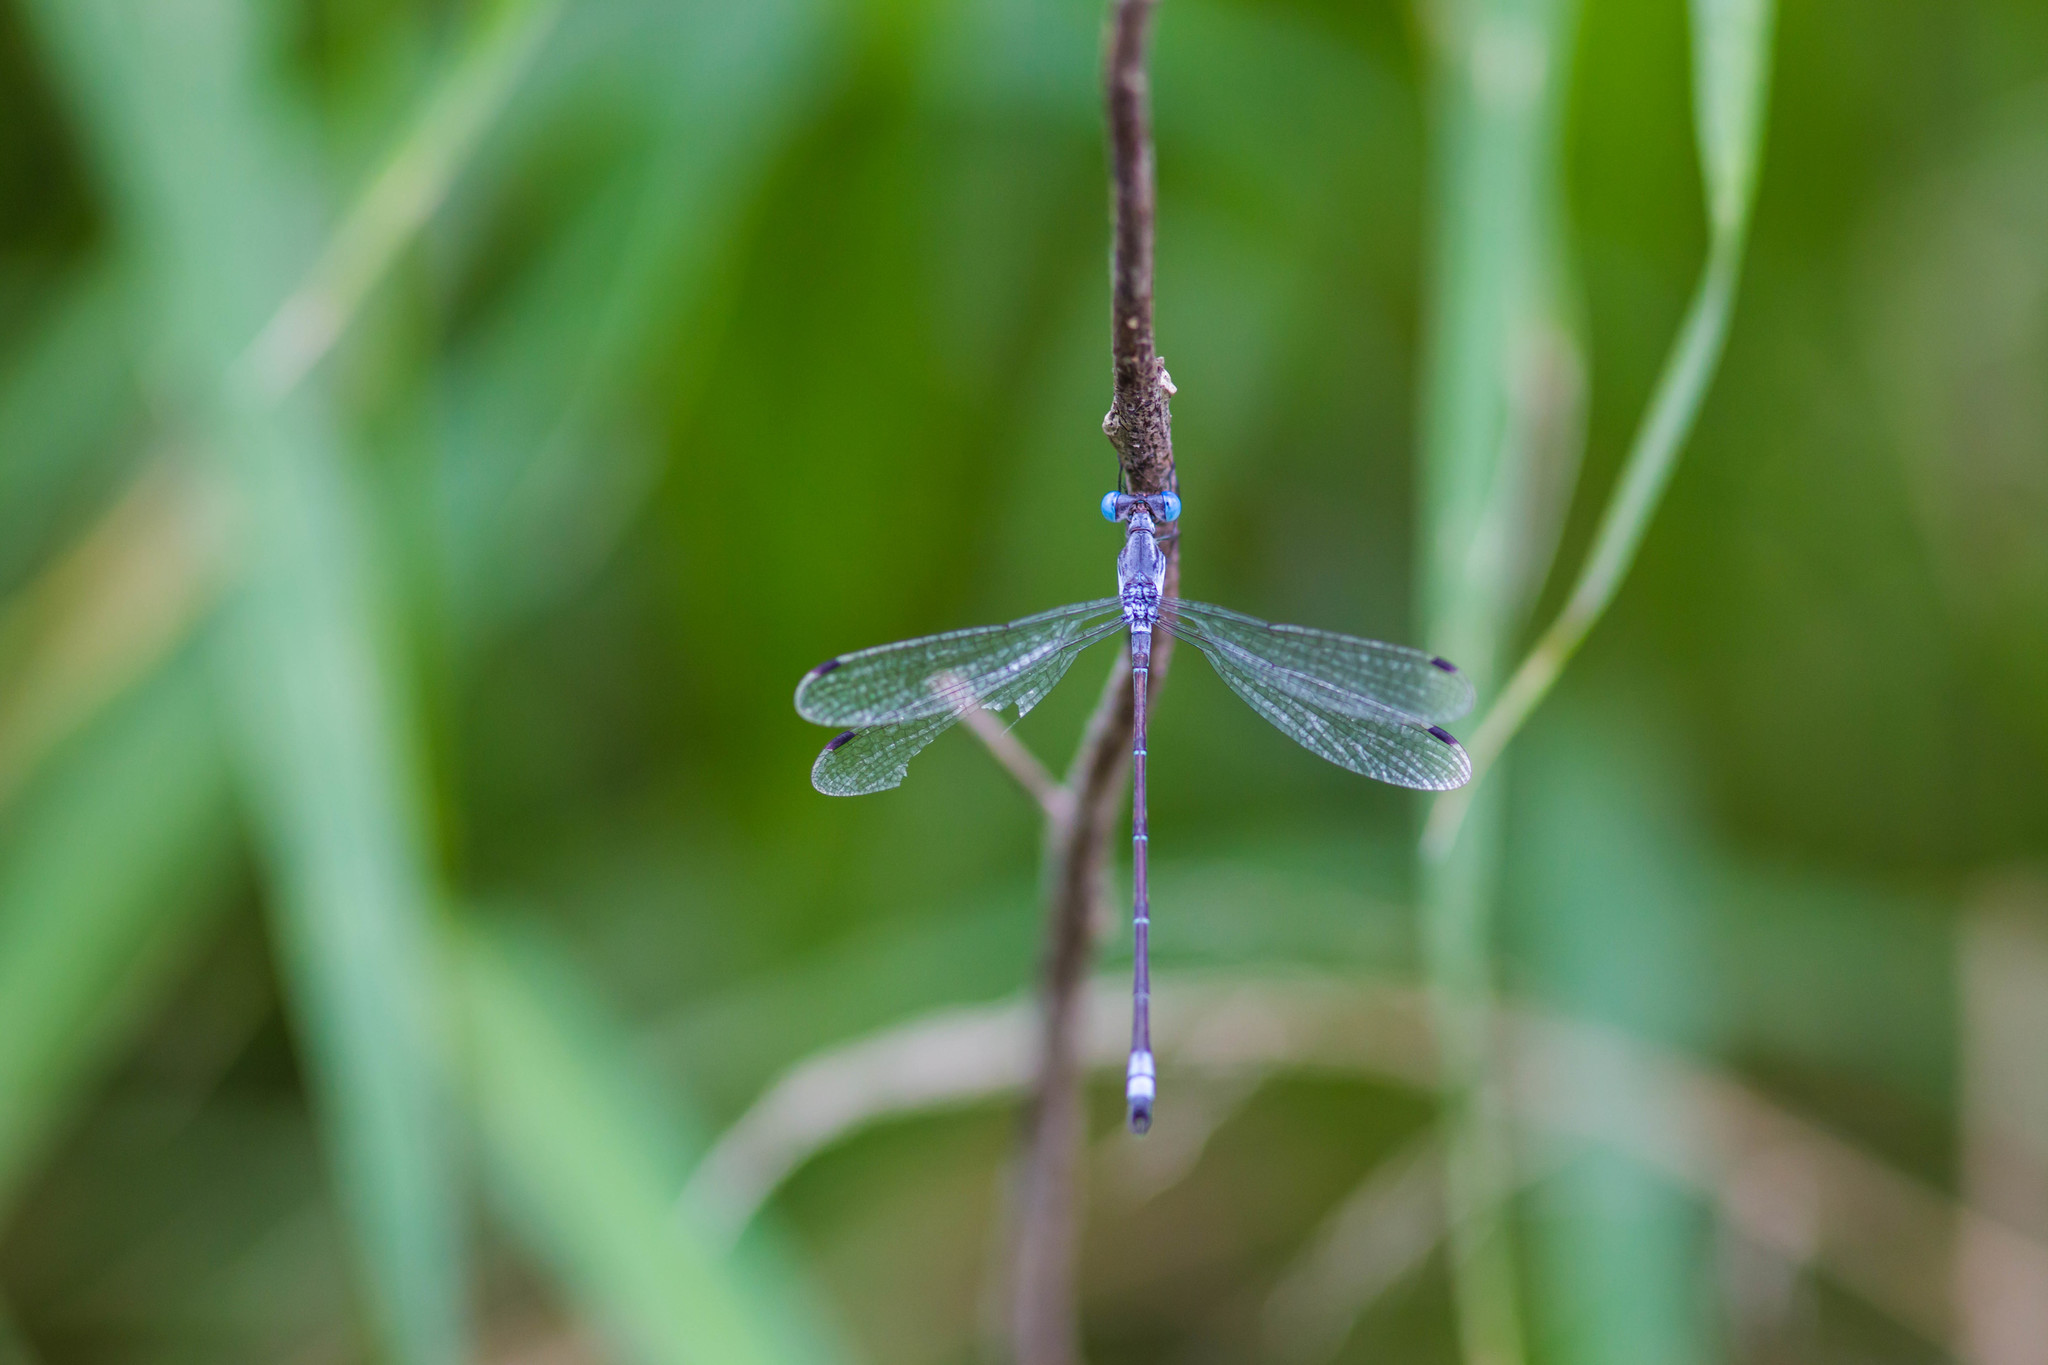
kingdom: Animalia
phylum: Arthropoda
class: Insecta
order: Odonata
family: Lestidae
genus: Lestes
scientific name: Lestes sigma
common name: Chalky spreadwing
